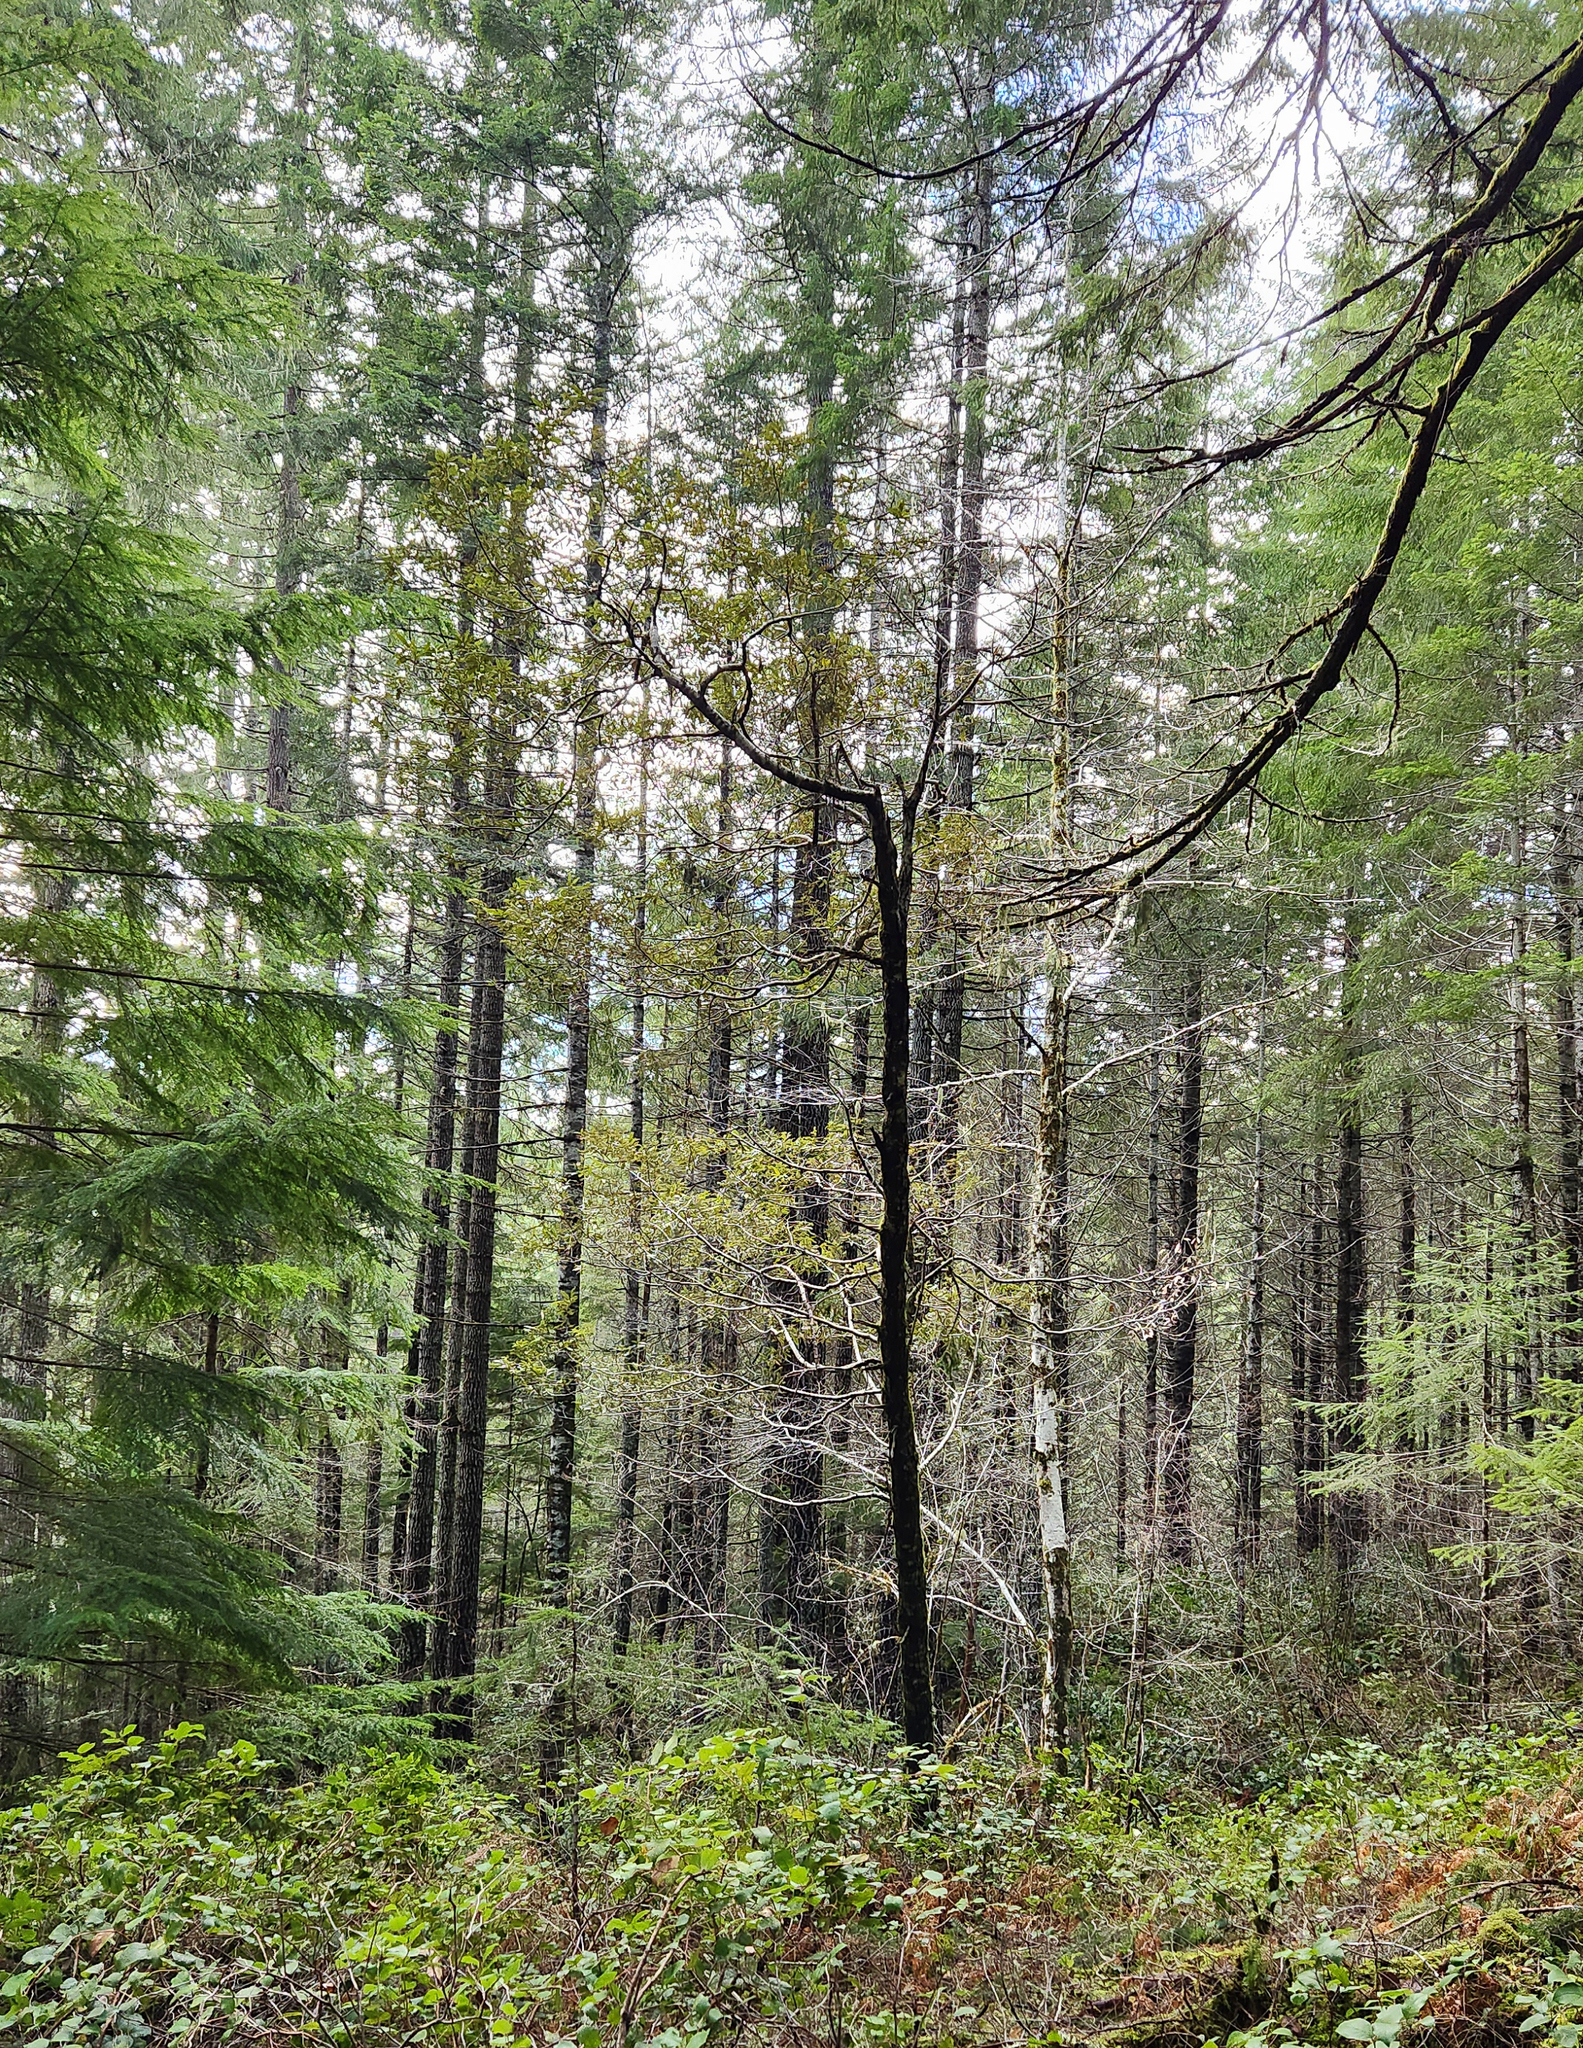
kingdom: Plantae
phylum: Tracheophyta
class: Magnoliopsida
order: Fagales
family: Fagaceae
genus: Chrysolepis
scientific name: Chrysolepis chrysophylla
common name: Giant chinquapin
